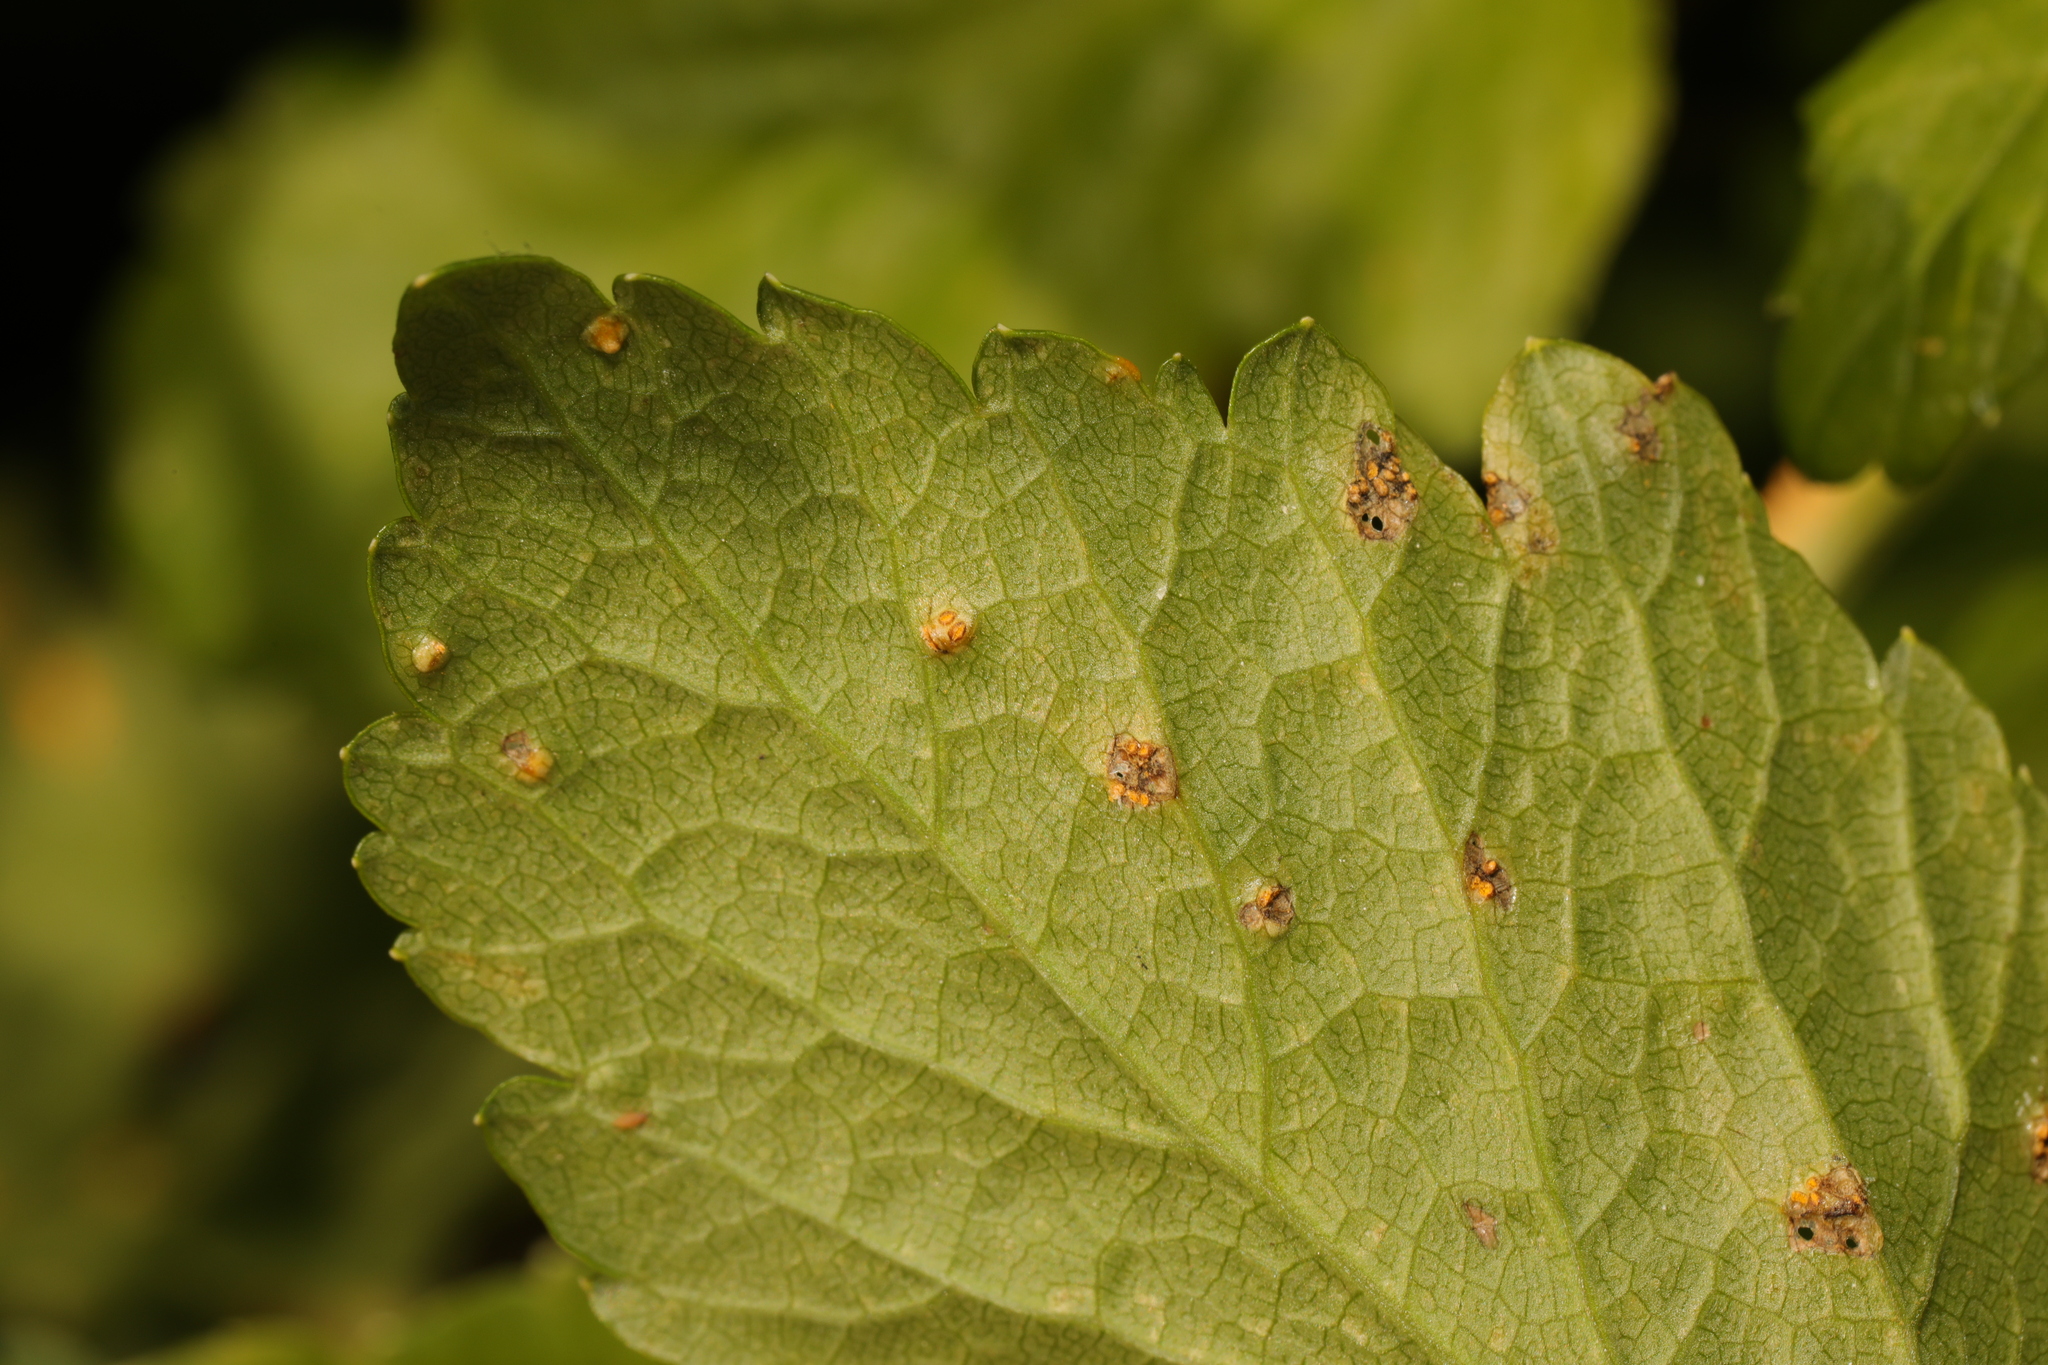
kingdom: Fungi
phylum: Basidiomycota
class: Pucciniomycetes
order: Pucciniales
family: Pucciniaceae
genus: Puccinia
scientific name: Puccinia smyrnii
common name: Alexanders rust
